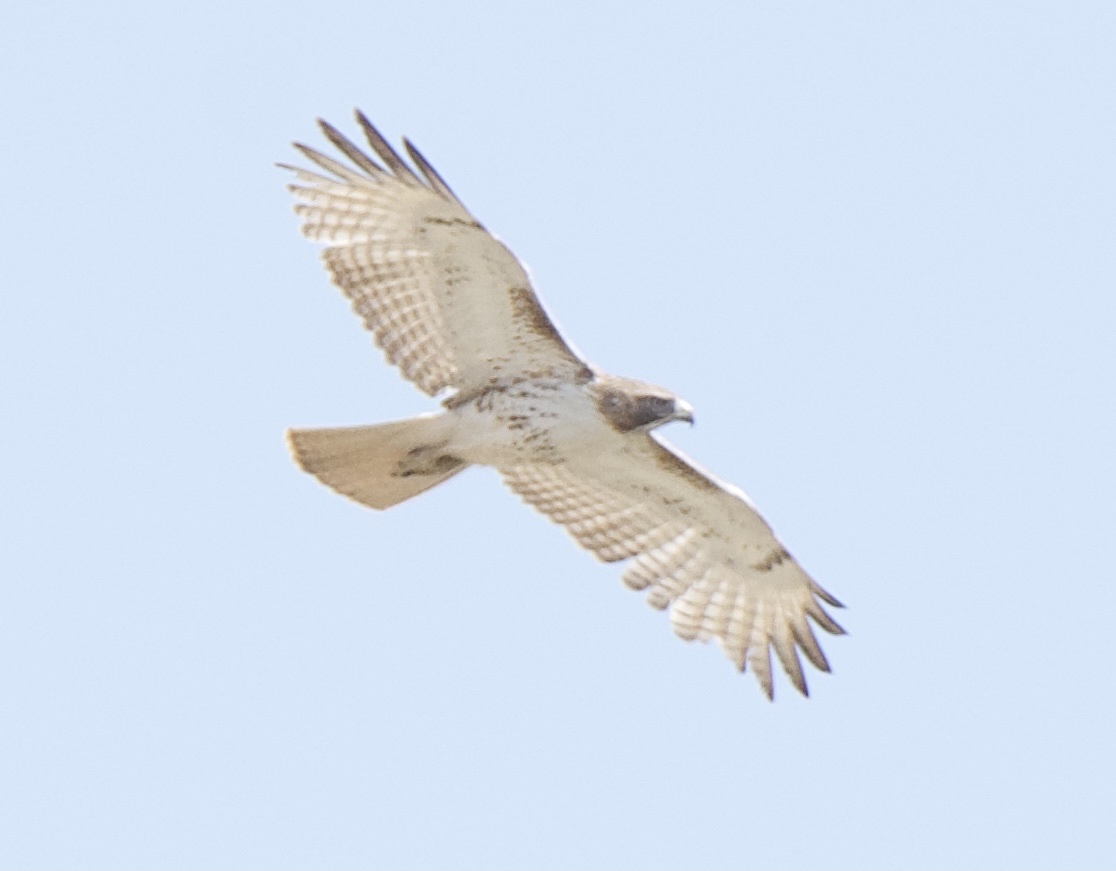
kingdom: Animalia
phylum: Chordata
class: Aves
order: Accipitriformes
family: Accipitridae
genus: Buteo
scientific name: Buteo jamaicensis
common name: Red-tailed hawk
